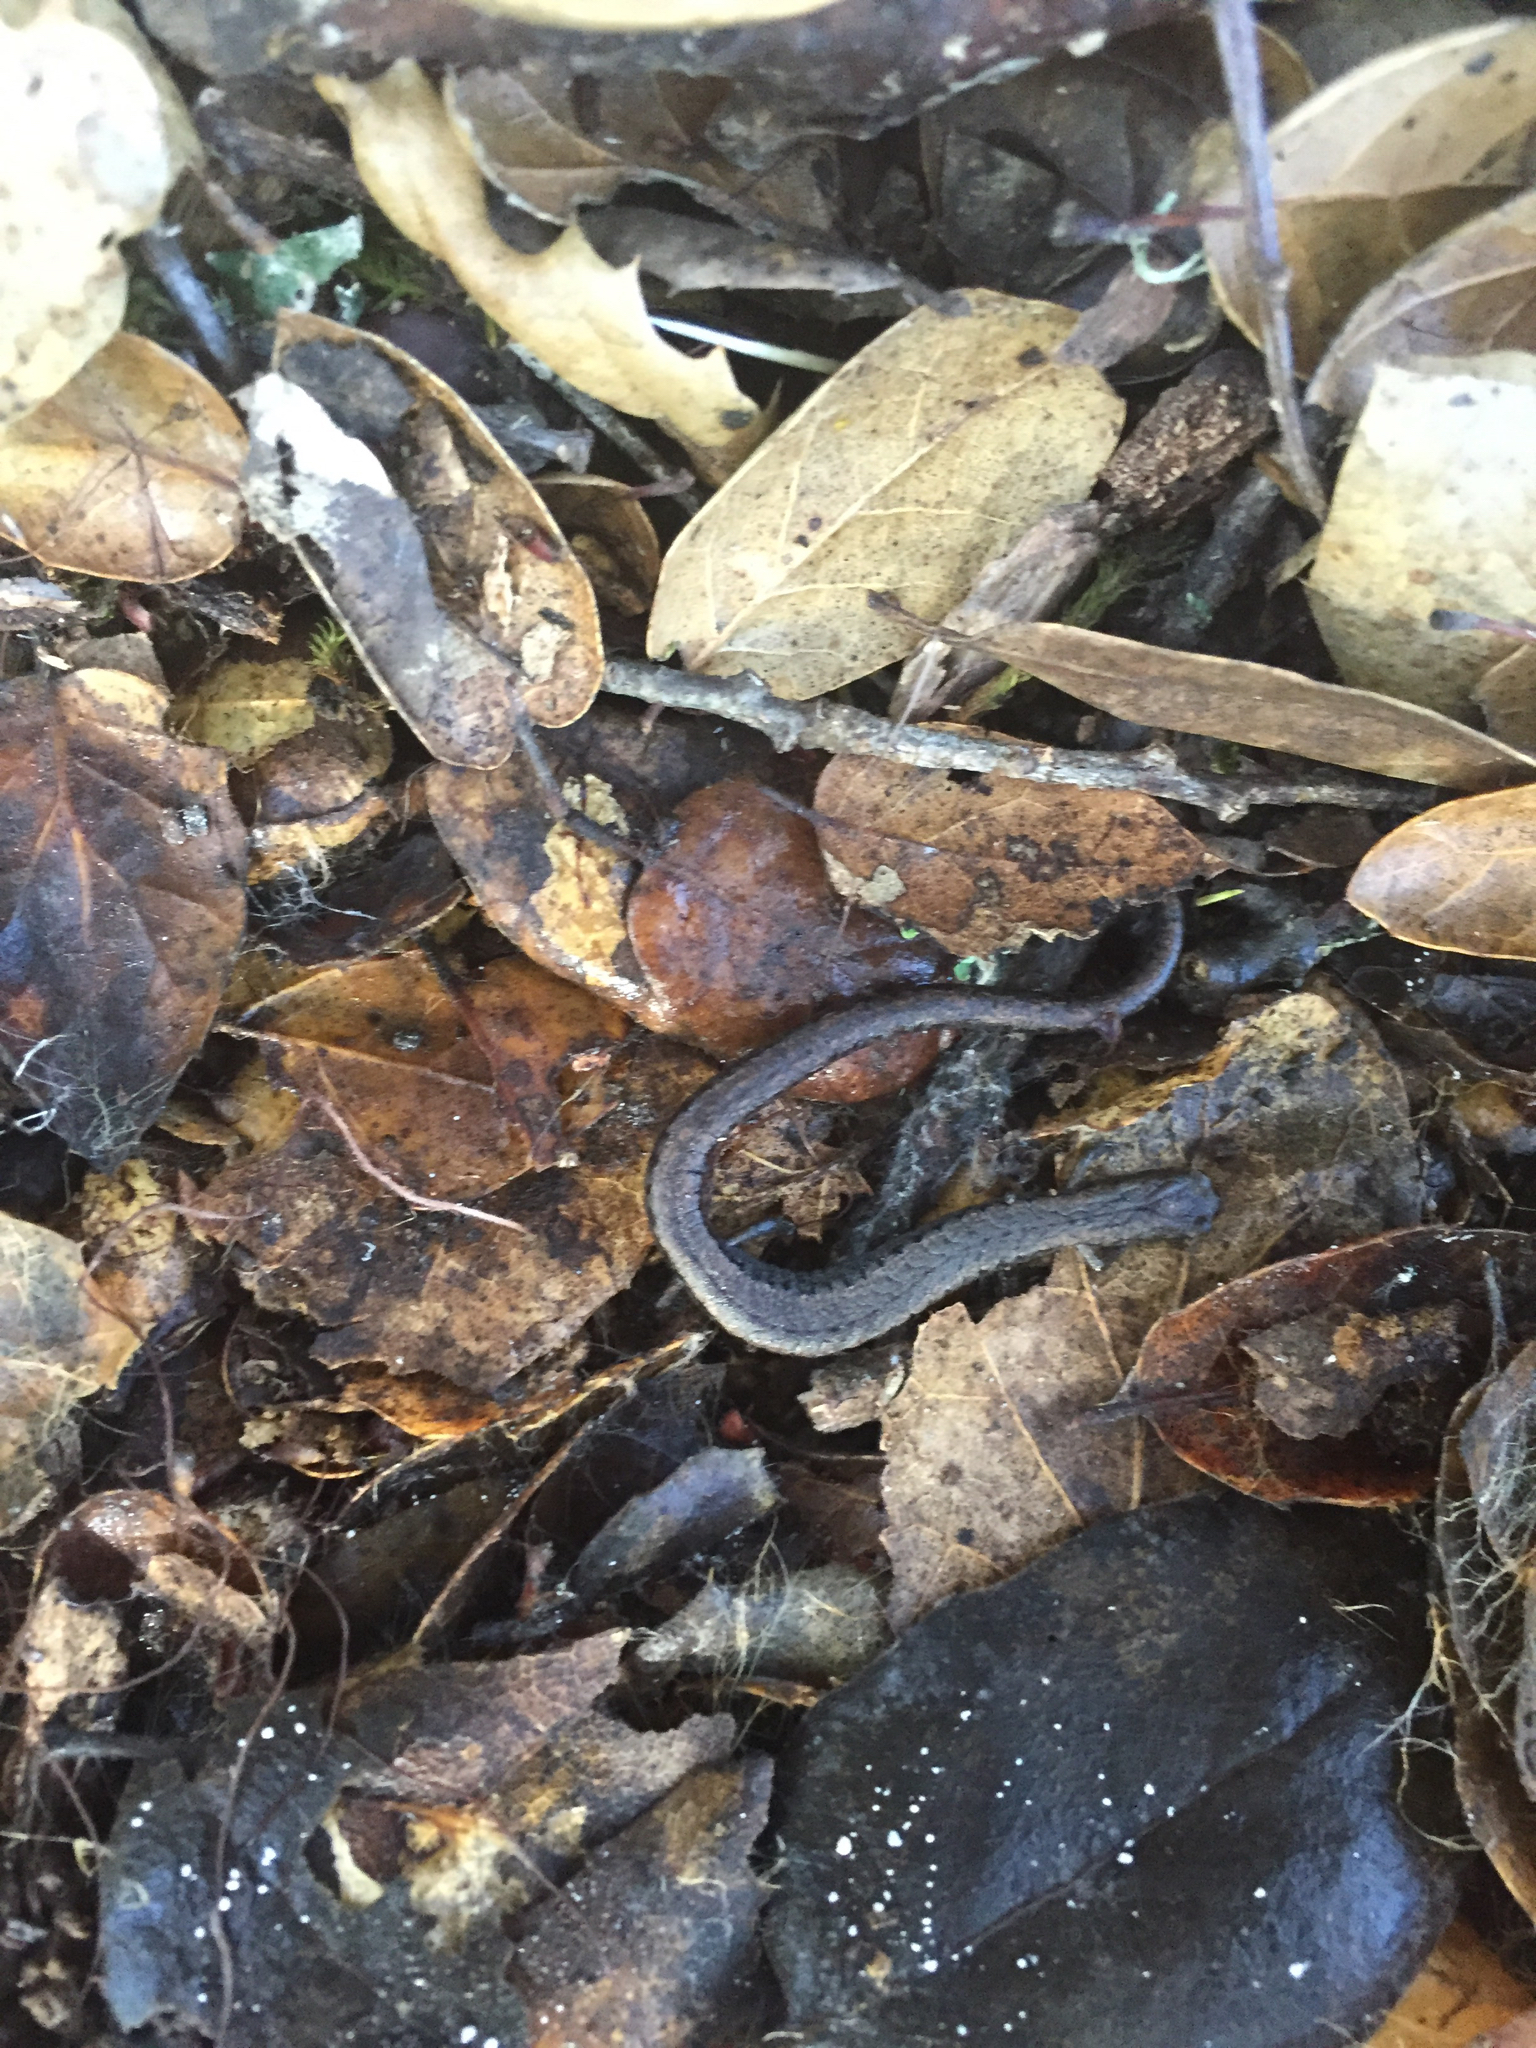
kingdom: Animalia
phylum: Chordata
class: Amphibia
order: Caudata
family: Plethodontidae
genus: Batrachoseps
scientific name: Batrachoseps attenuatus
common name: California slender salamander
